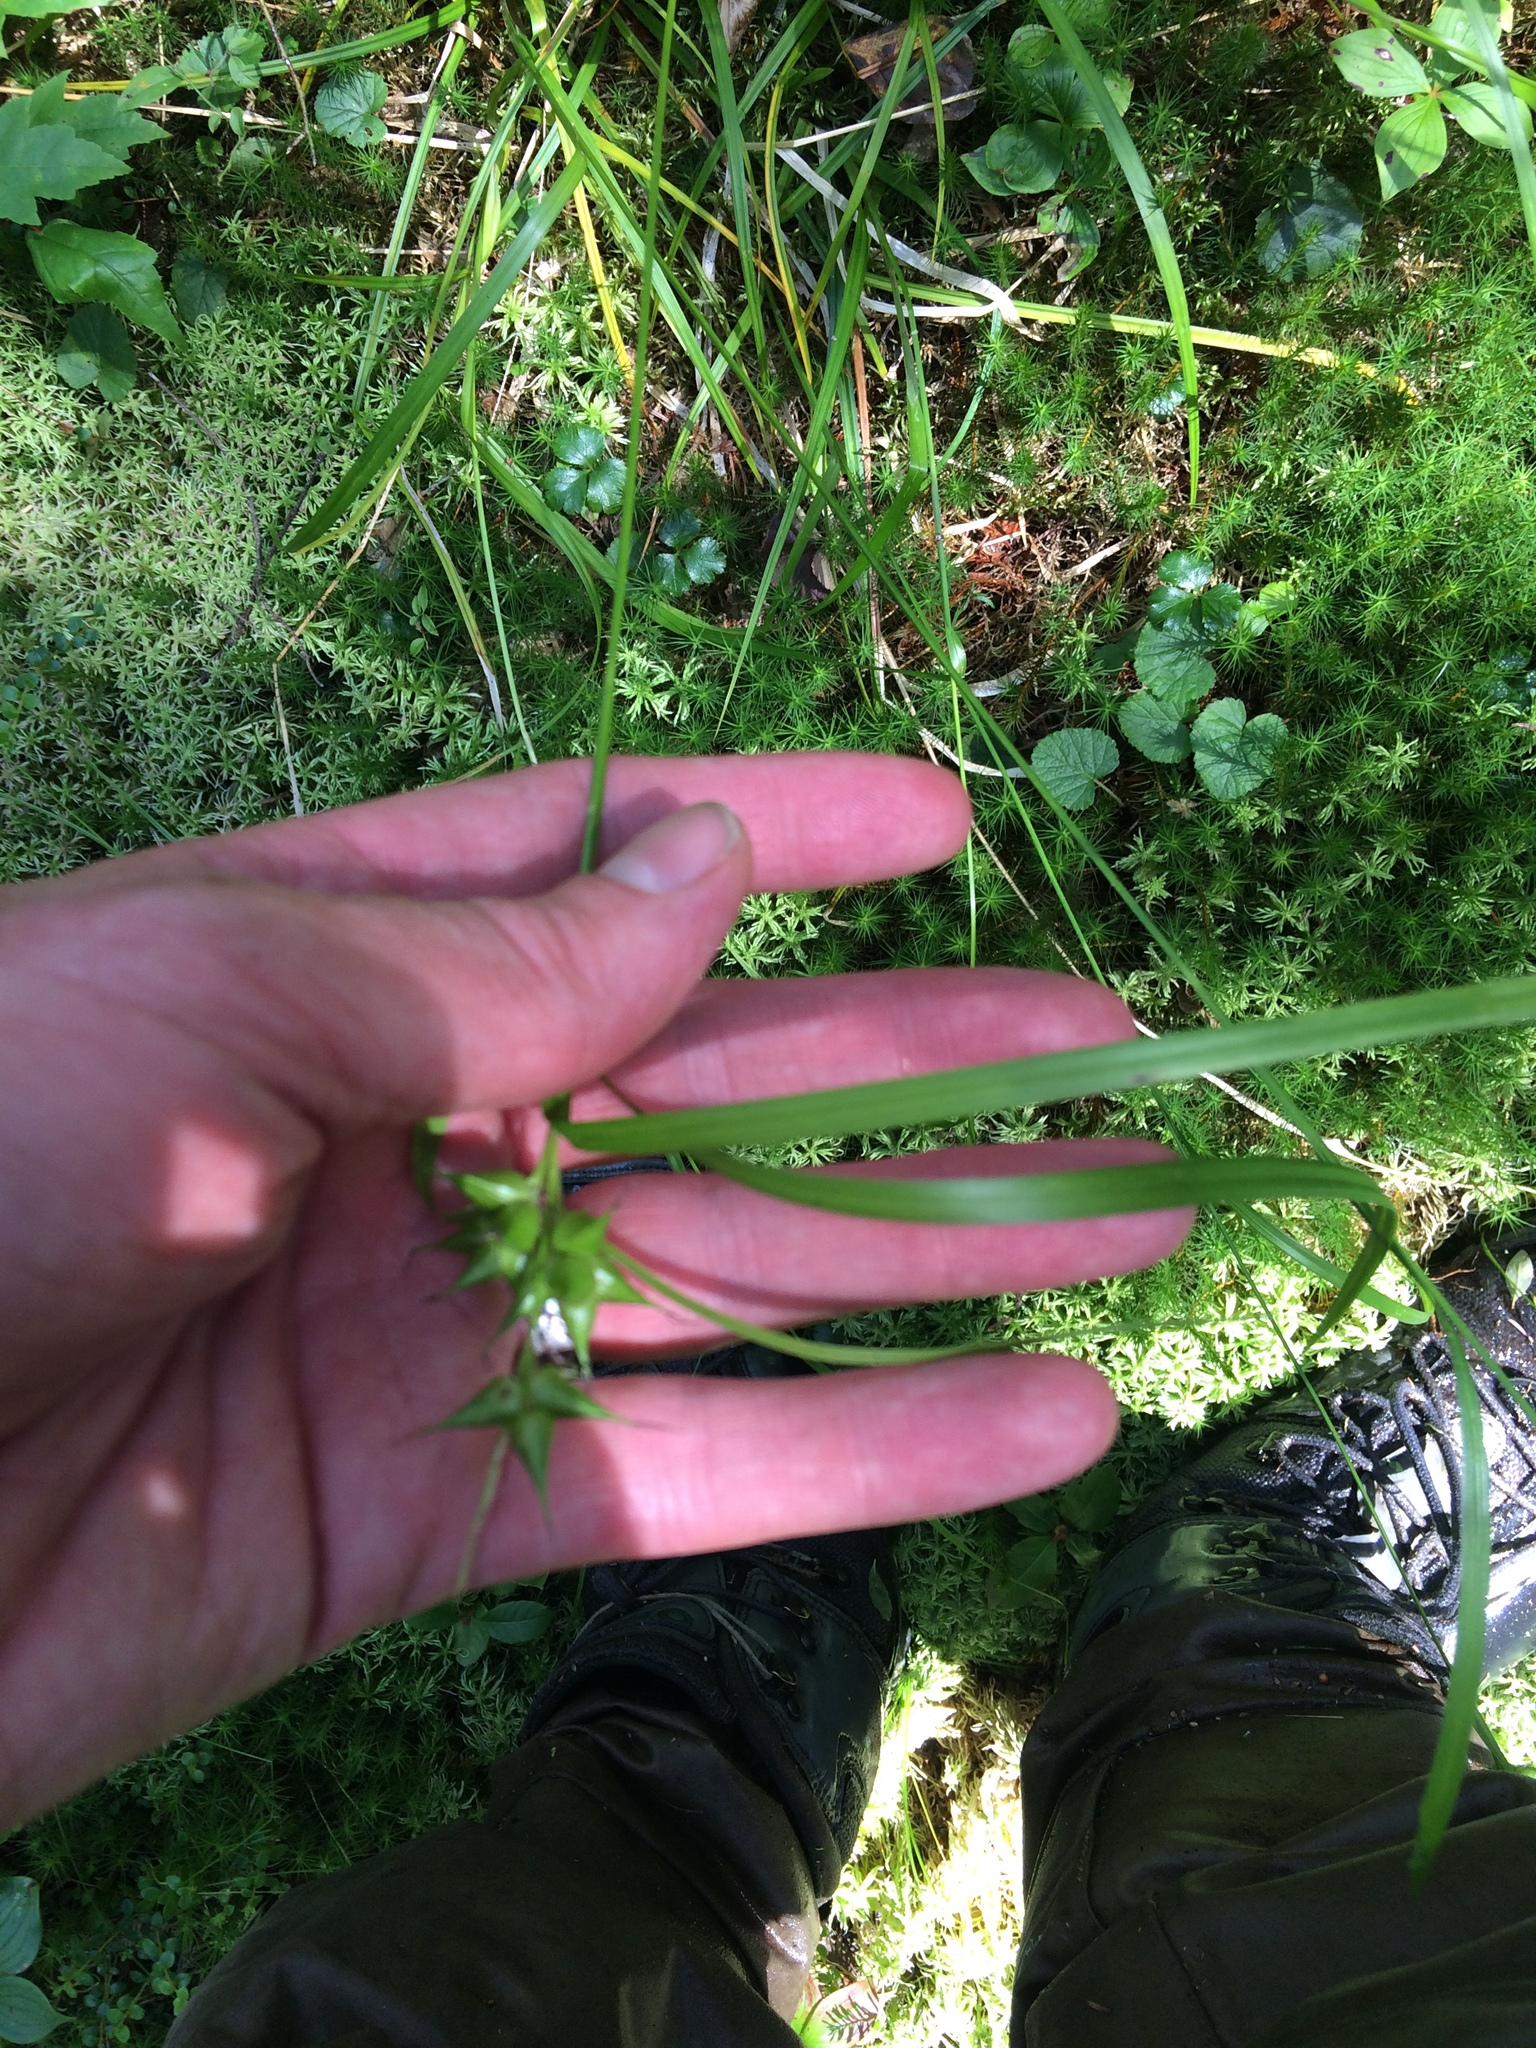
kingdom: Plantae
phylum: Tracheophyta
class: Liliopsida
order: Poales
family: Cyperaceae
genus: Carex
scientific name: Carex intumescens
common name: Greater bladder sedge
